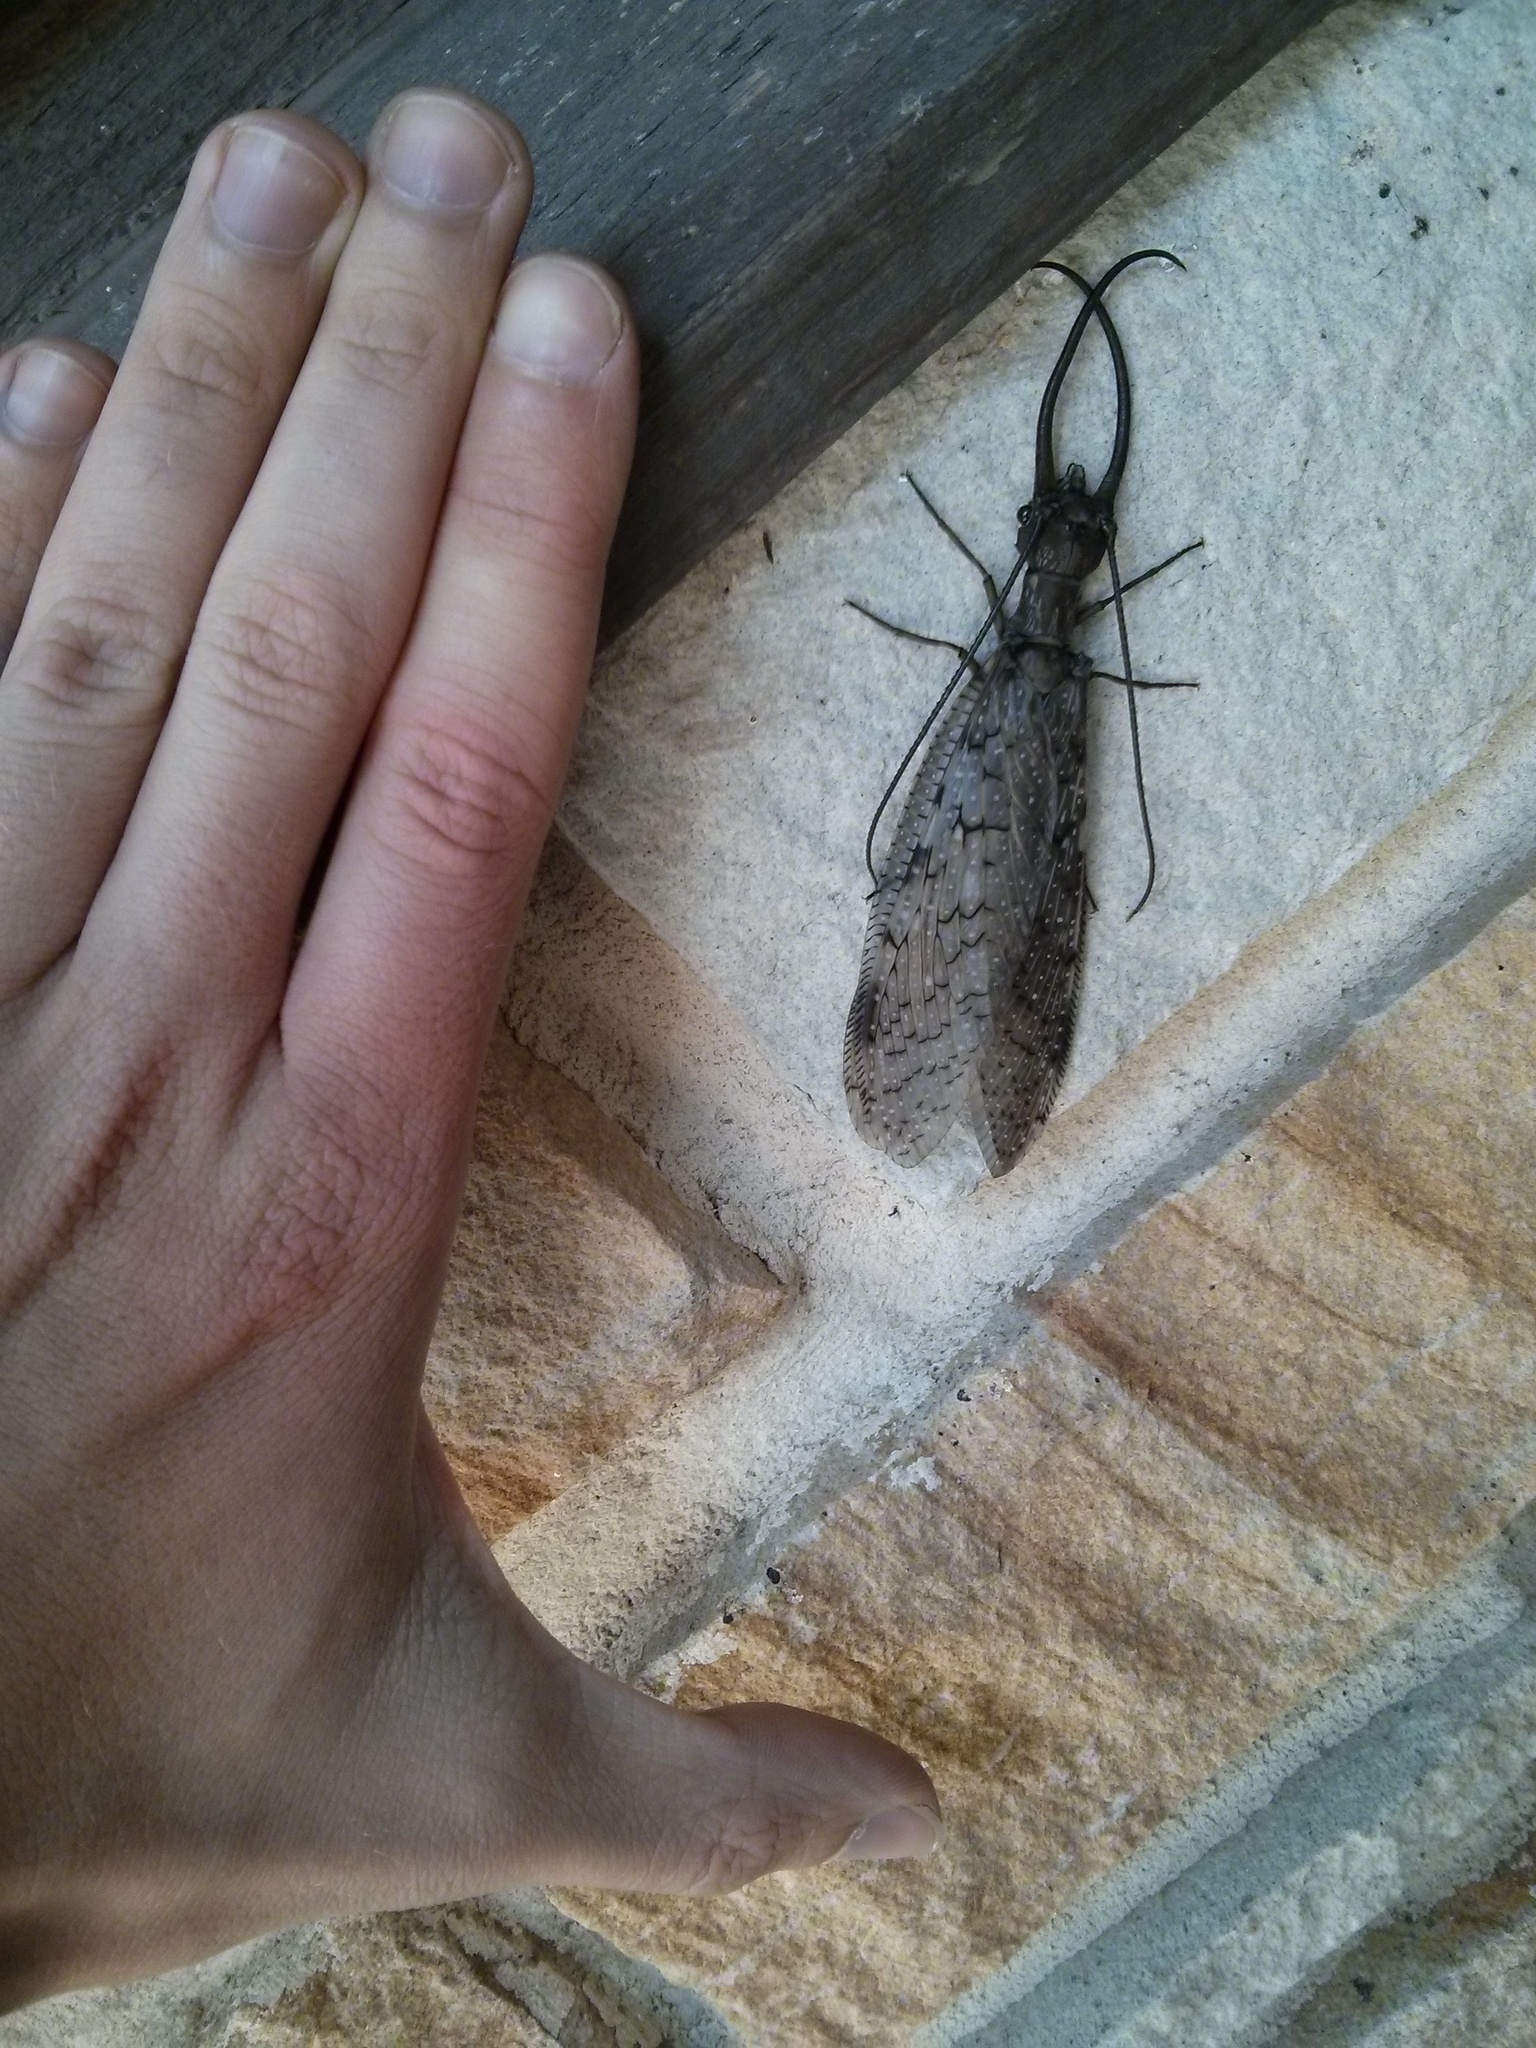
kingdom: Animalia
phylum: Arthropoda
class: Insecta
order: Megaloptera
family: Corydalidae
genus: Corydalus
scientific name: Corydalus cornutus
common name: Dobsonfly
